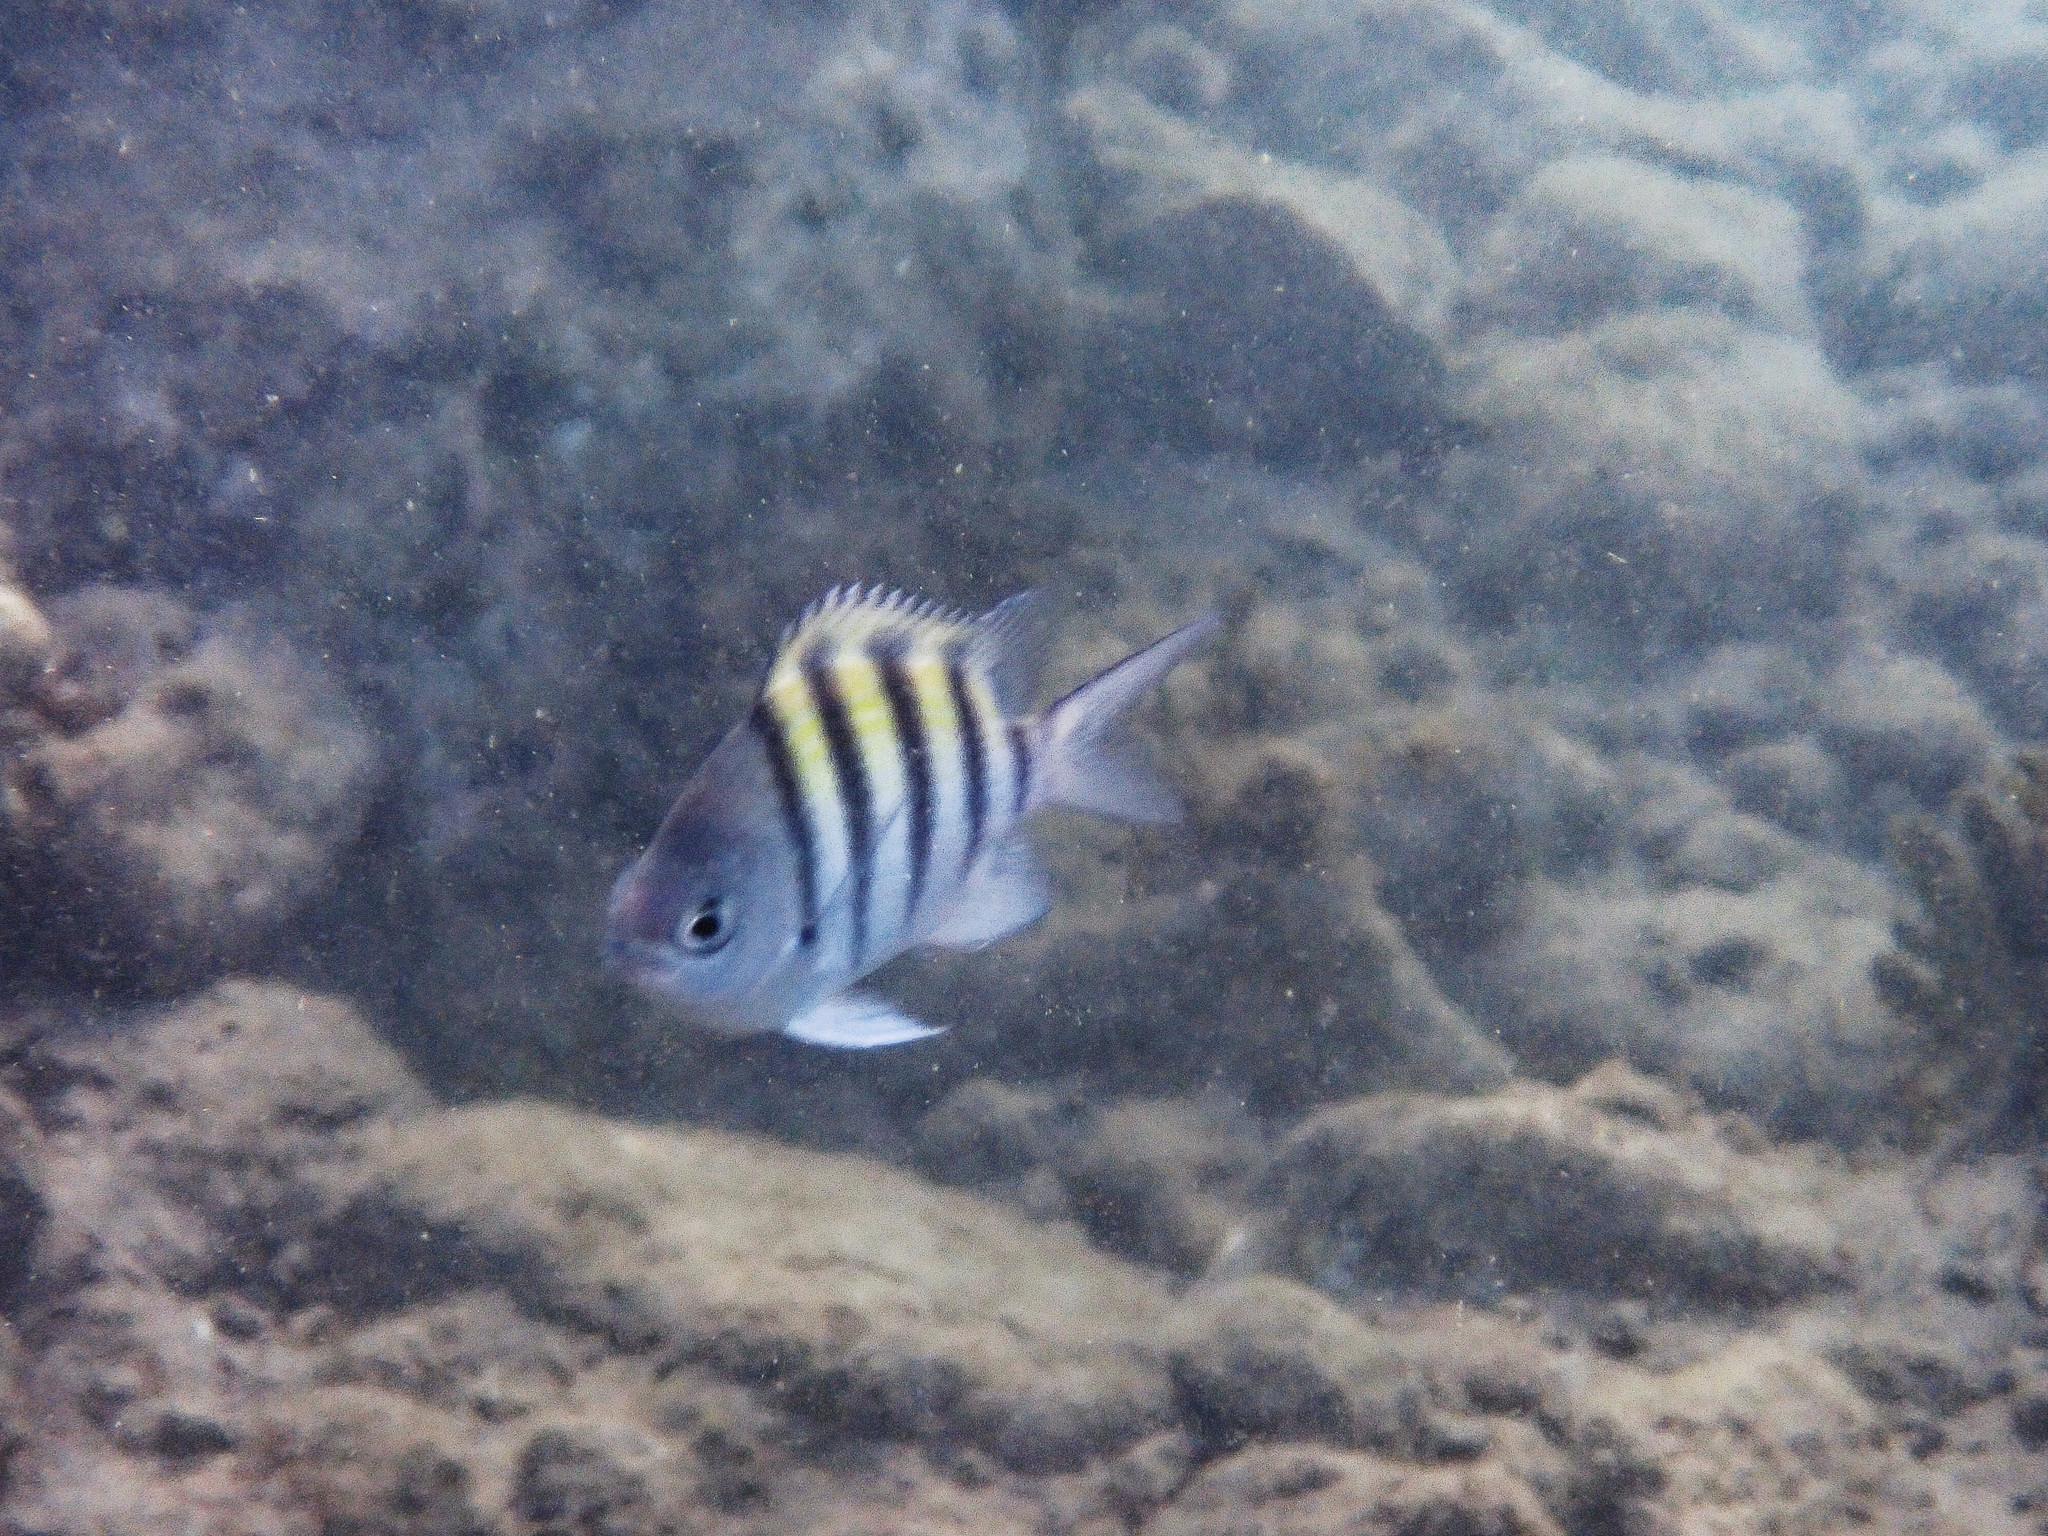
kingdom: Animalia
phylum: Chordata
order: Perciformes
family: Pomacentridae
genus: Abudefduf
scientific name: Abudefduf saxatilis
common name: Sergeant major
